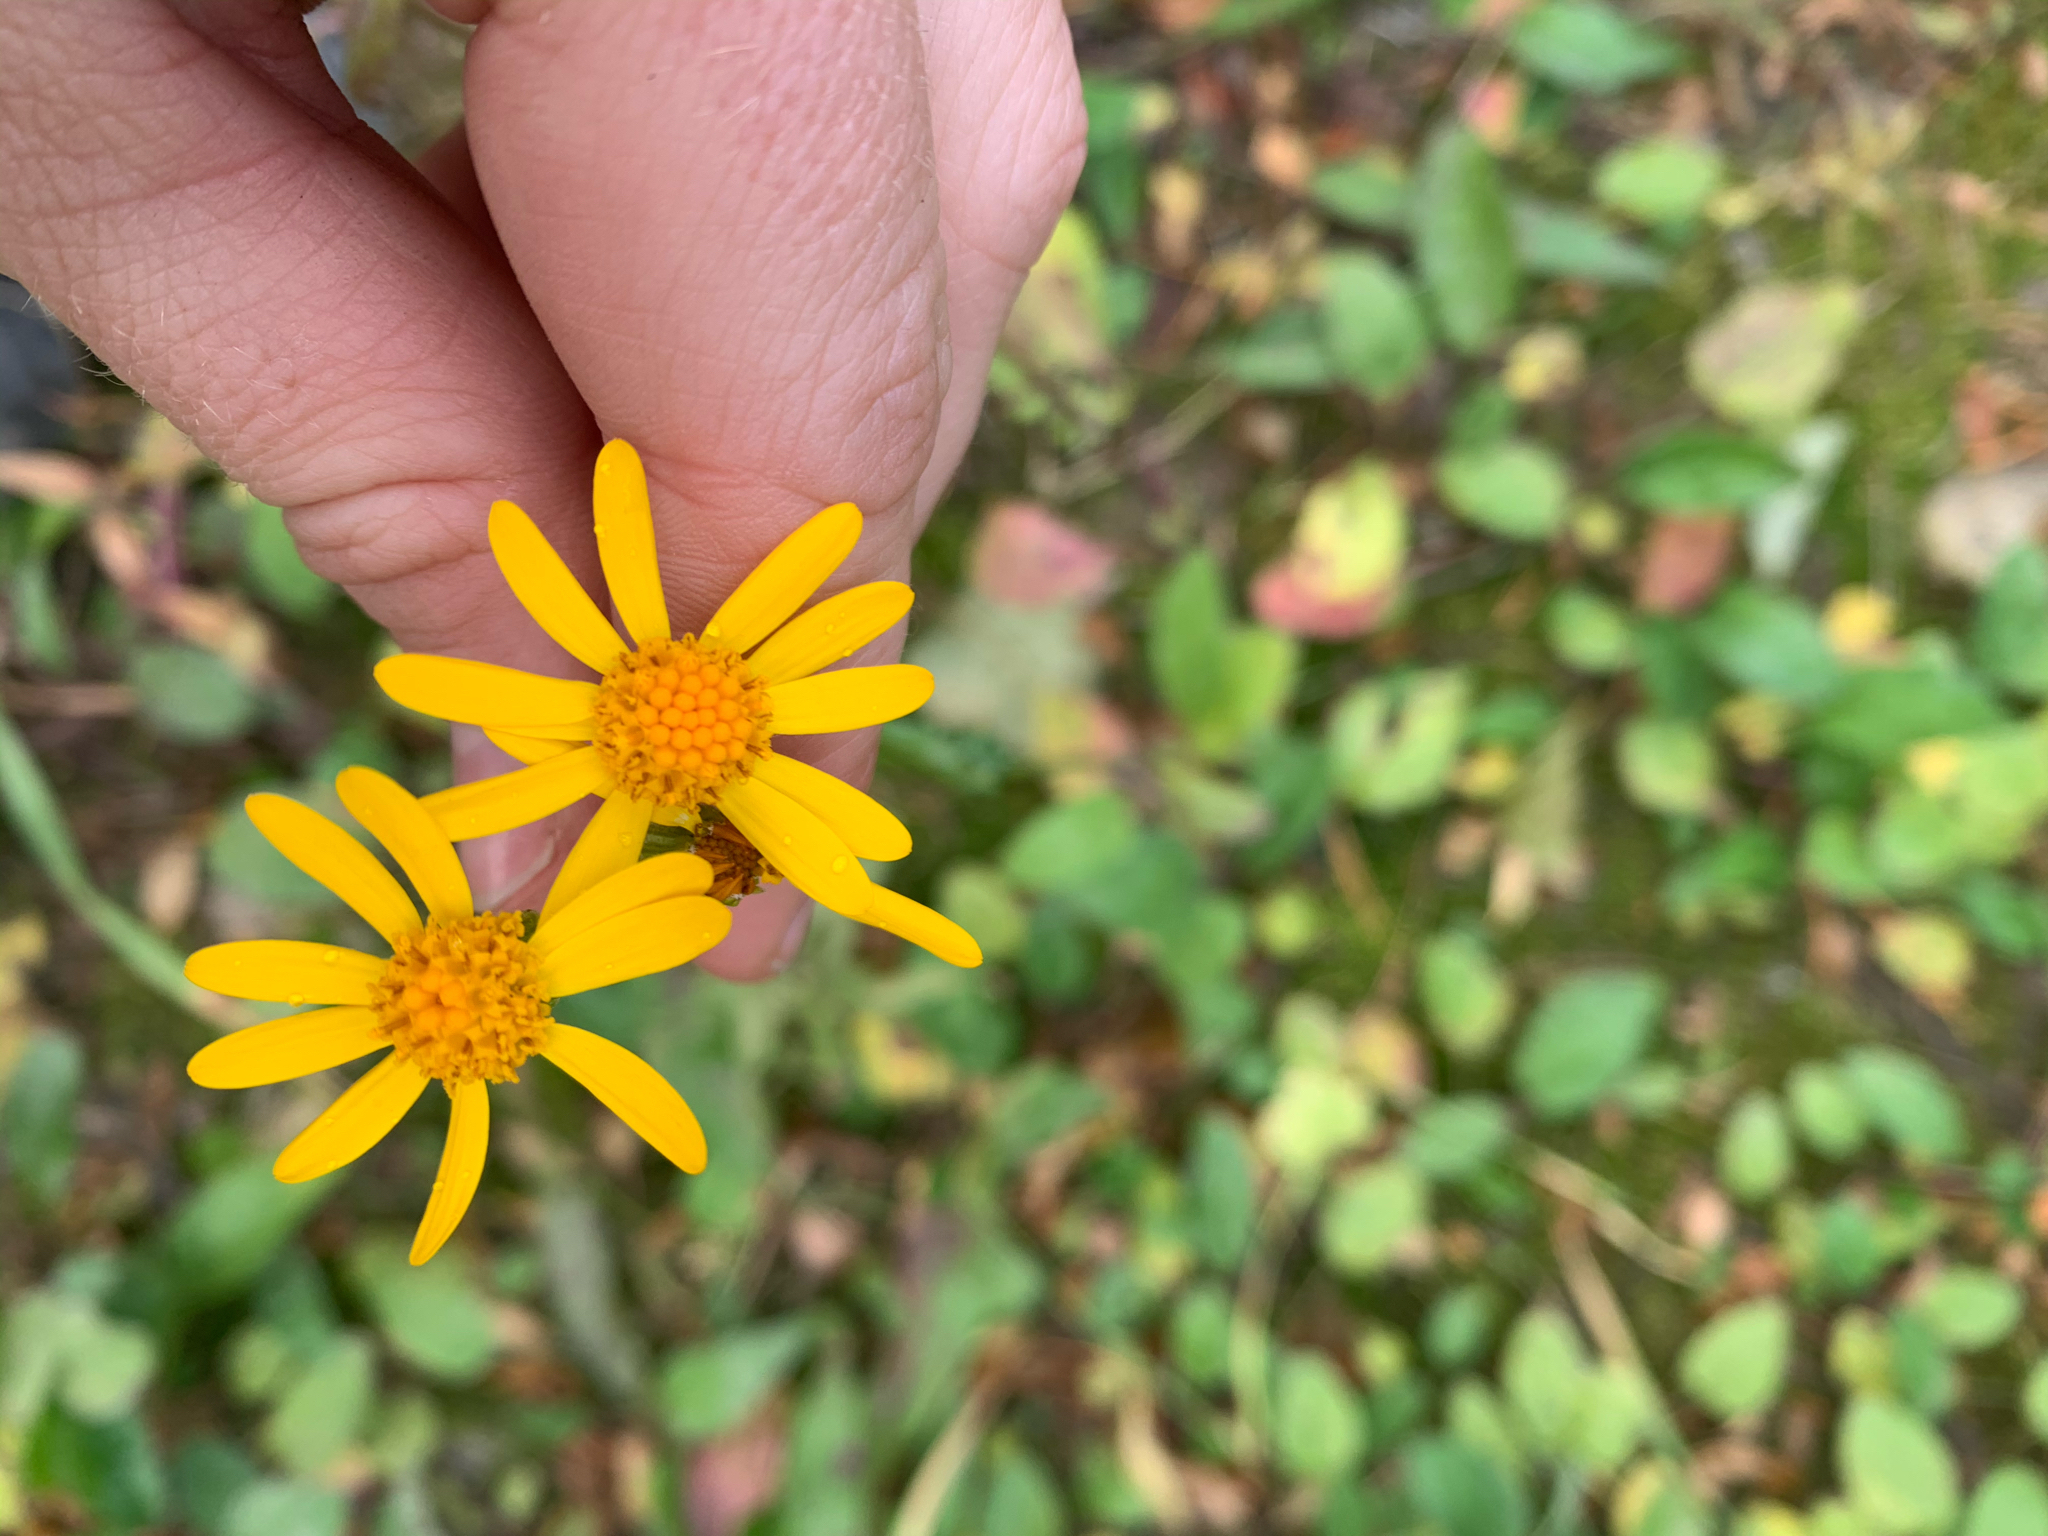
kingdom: Plantae
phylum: Tracheophyta
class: Magnoliopsida
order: Asterales
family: Asteraceae
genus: Packera
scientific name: Packera
